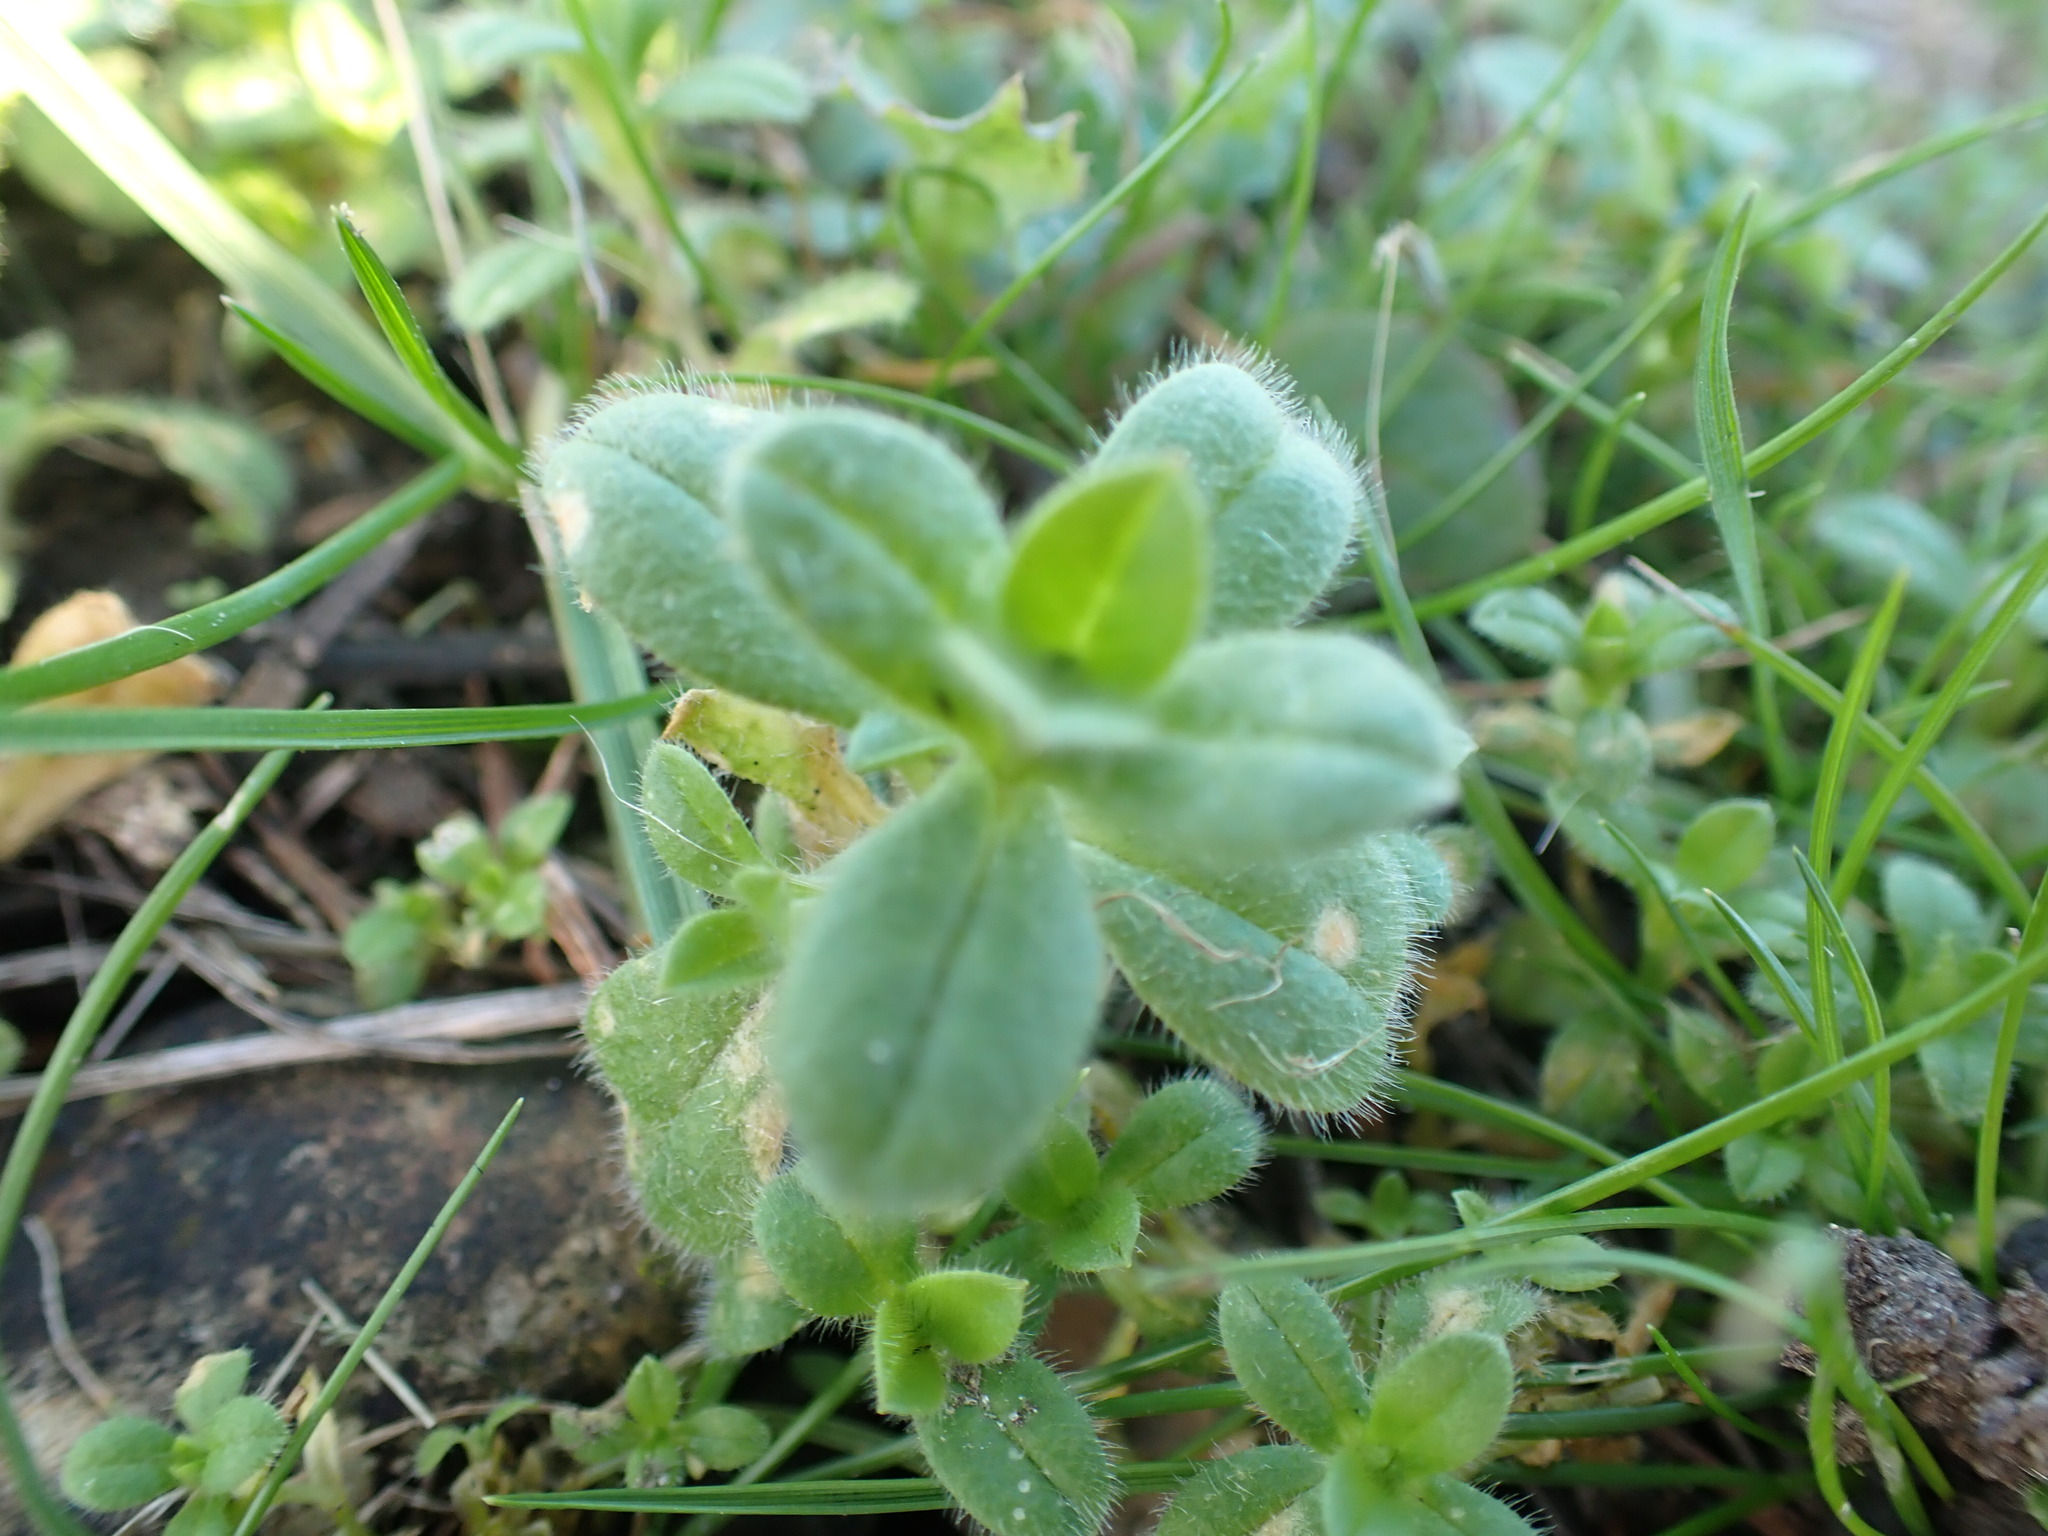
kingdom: Plantae
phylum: Tracheophyta
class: Magnoliopsida
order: Caryophyllales
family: Caryophyllaceae
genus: Cerastium
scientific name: Cerastium glomeratum
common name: Sticky chickweed
